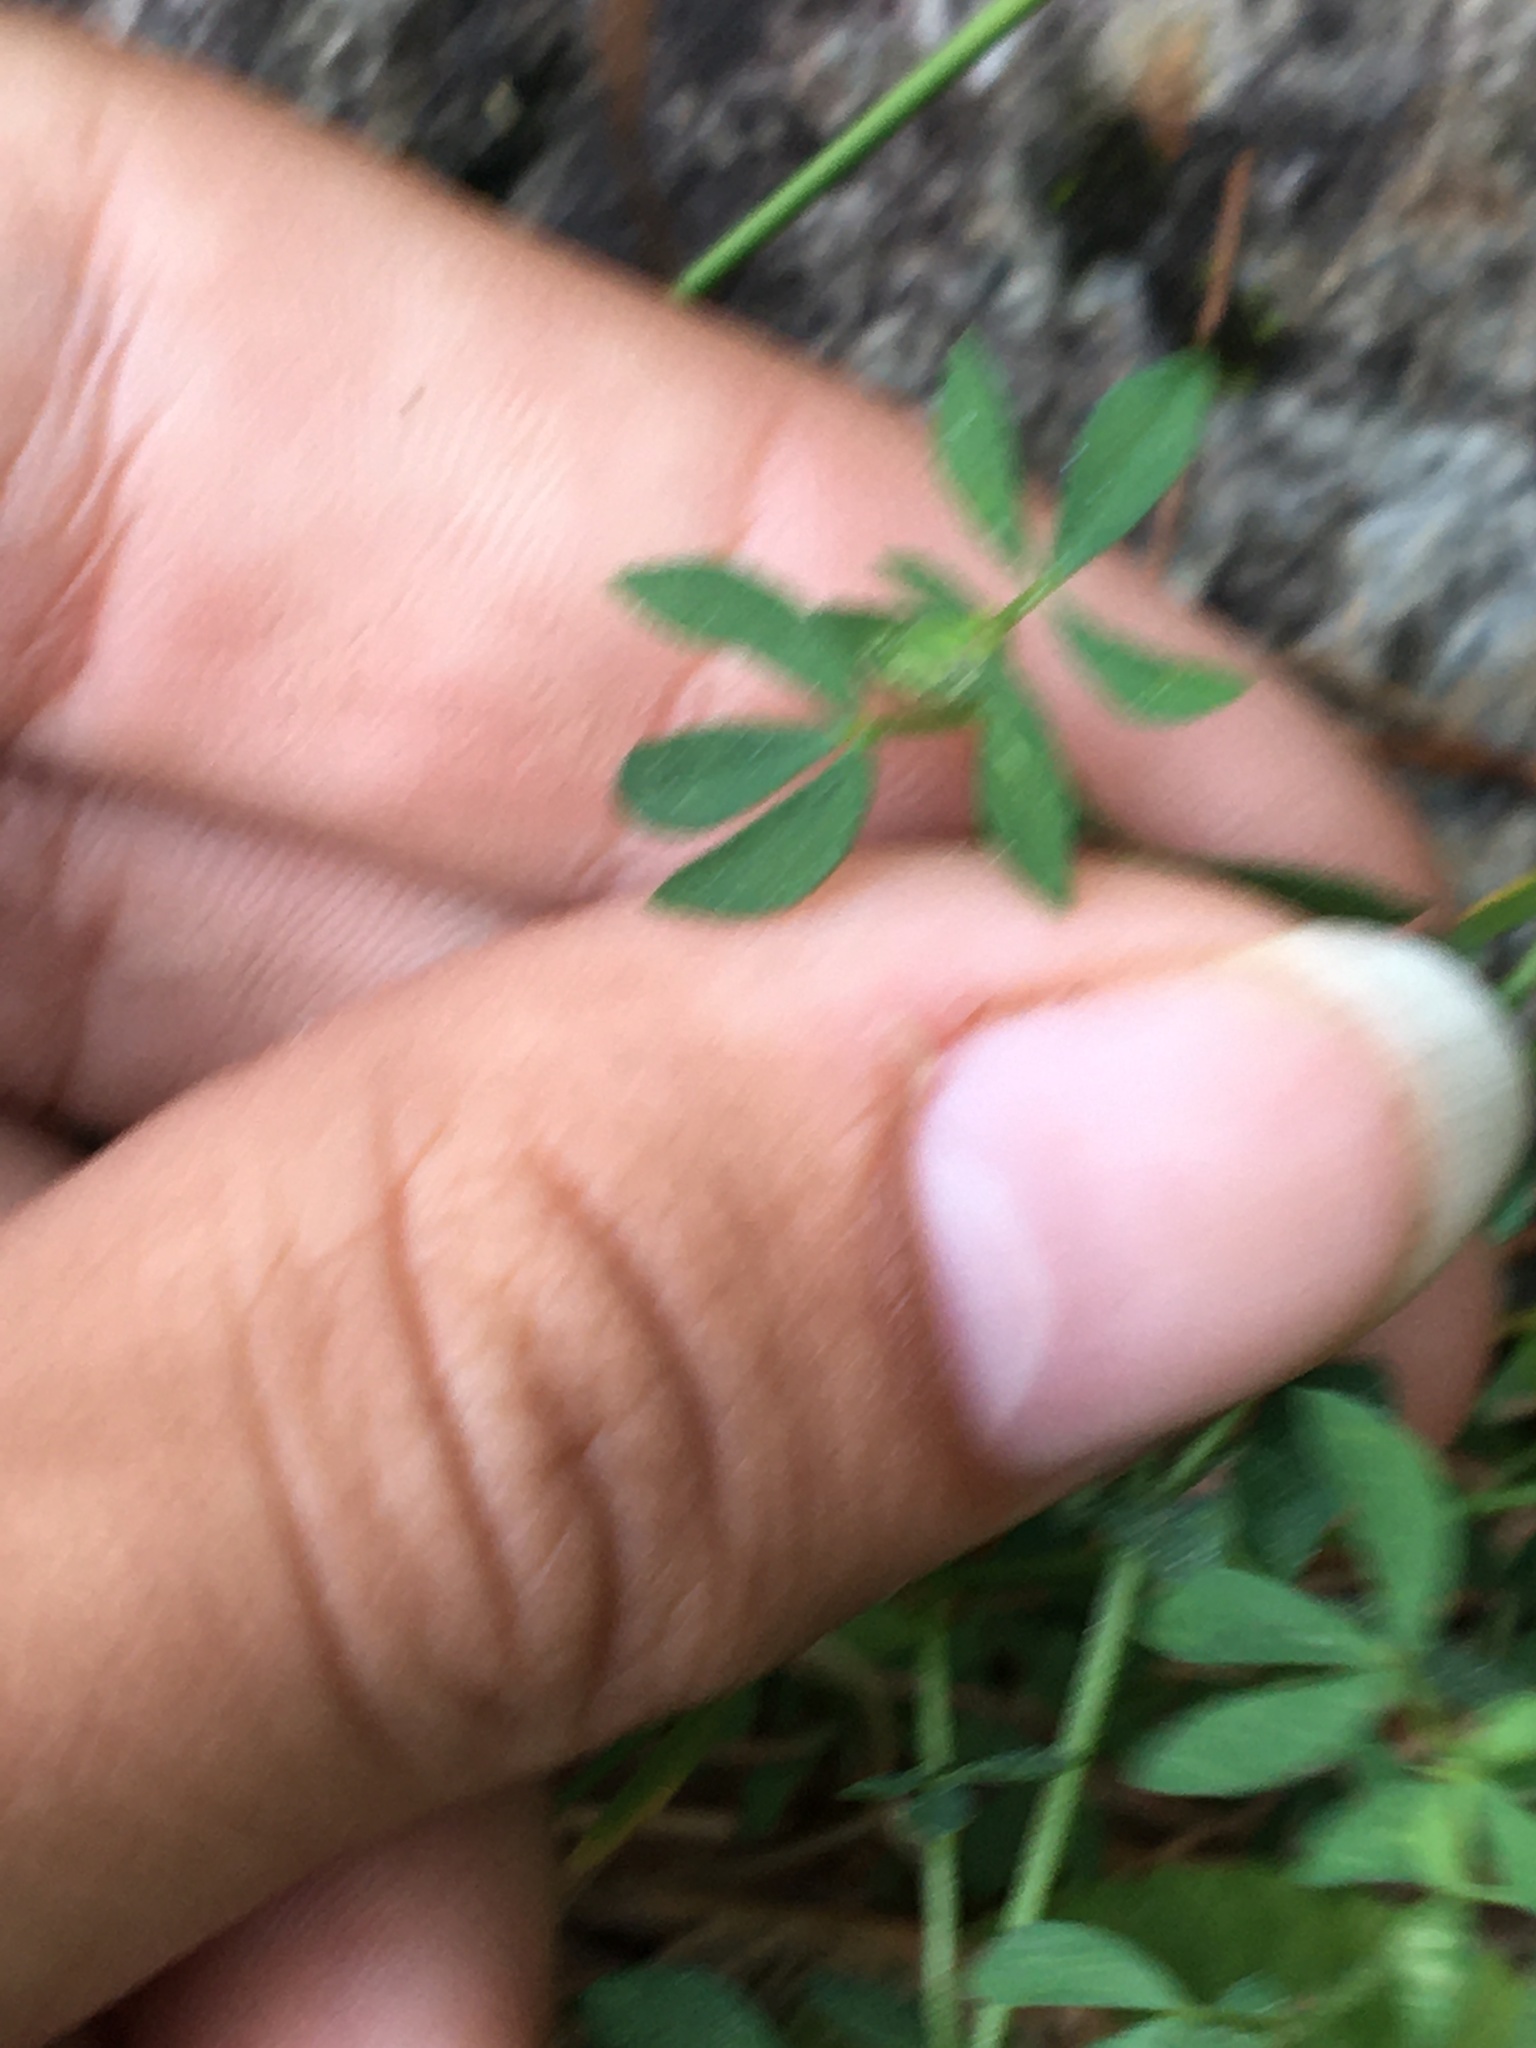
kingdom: Plantae
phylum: Tracheophyta
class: Magnoliopsida
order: Fabales
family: Fabaceae
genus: Lotus
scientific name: Lotus corniculatus
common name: Common bird's-foot-trefoil
